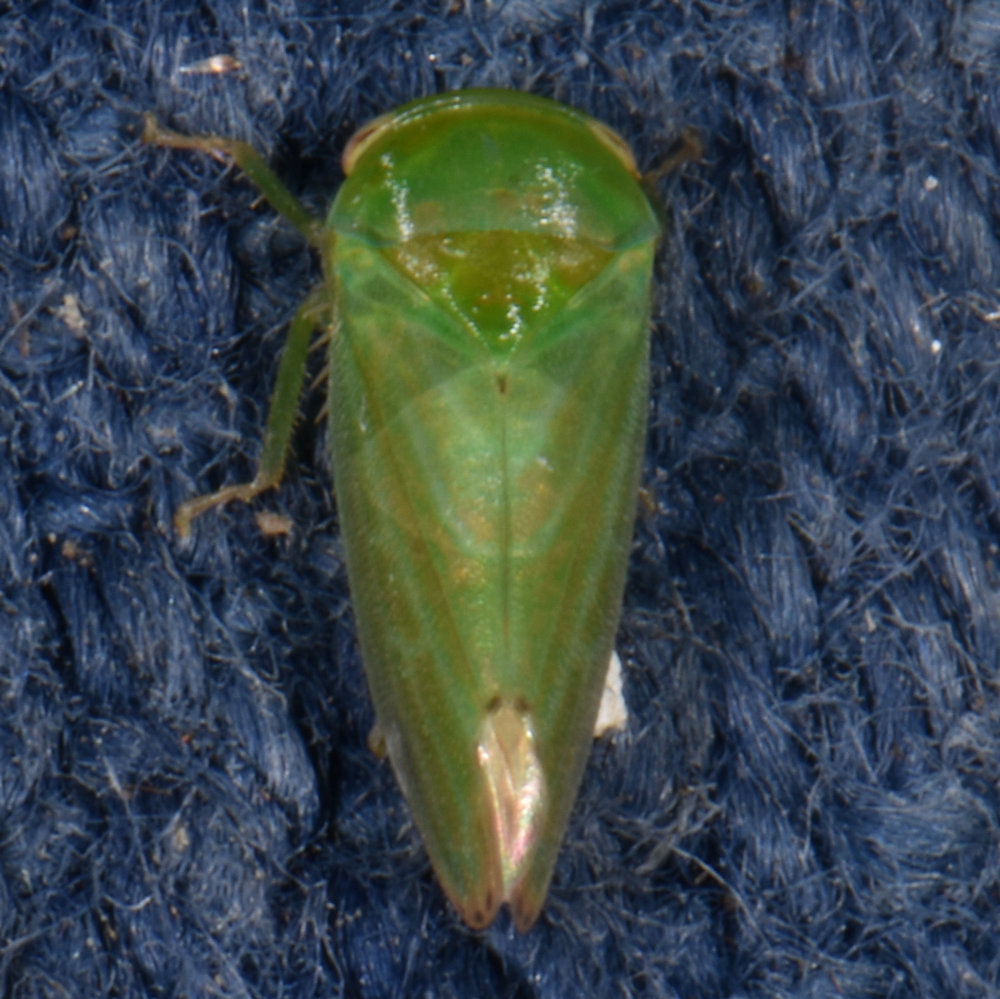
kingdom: Animalia
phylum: Arthropoda
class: Insecta
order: Hemiptera
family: Cicadellidae
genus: Stragania
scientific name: Stragania alabamensis
